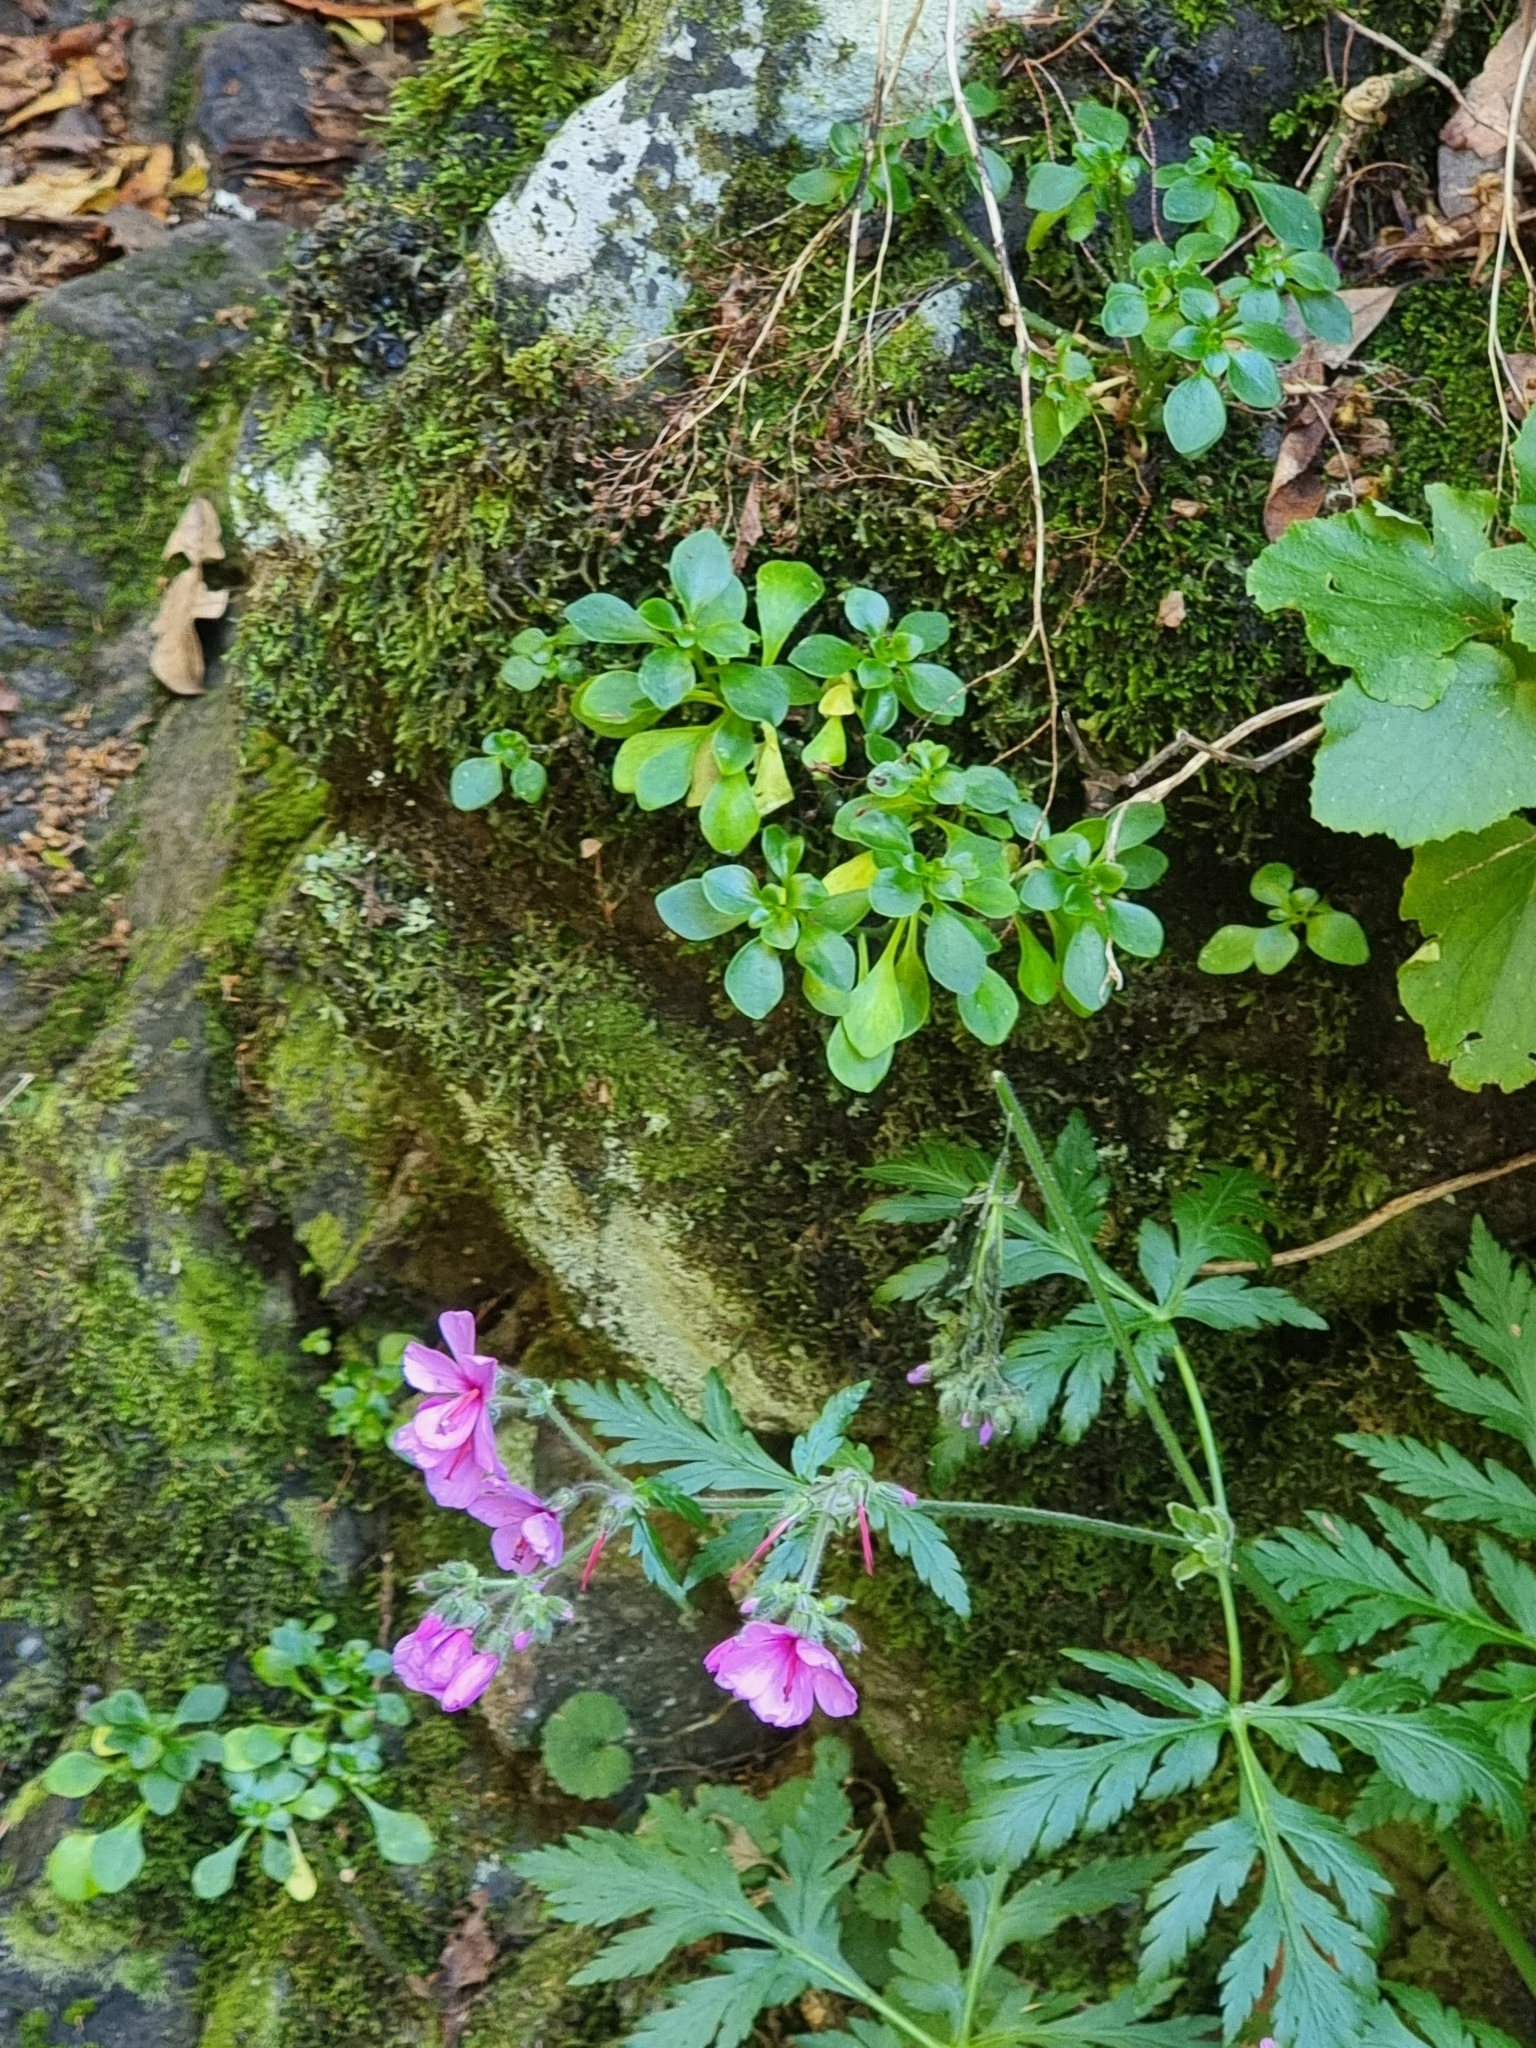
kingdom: Plantae
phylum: Tracheophyta
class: Magnoliopsida
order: Saxifragales
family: Crassulaceae
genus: Aichryson
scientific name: Aichryson divaricatum
